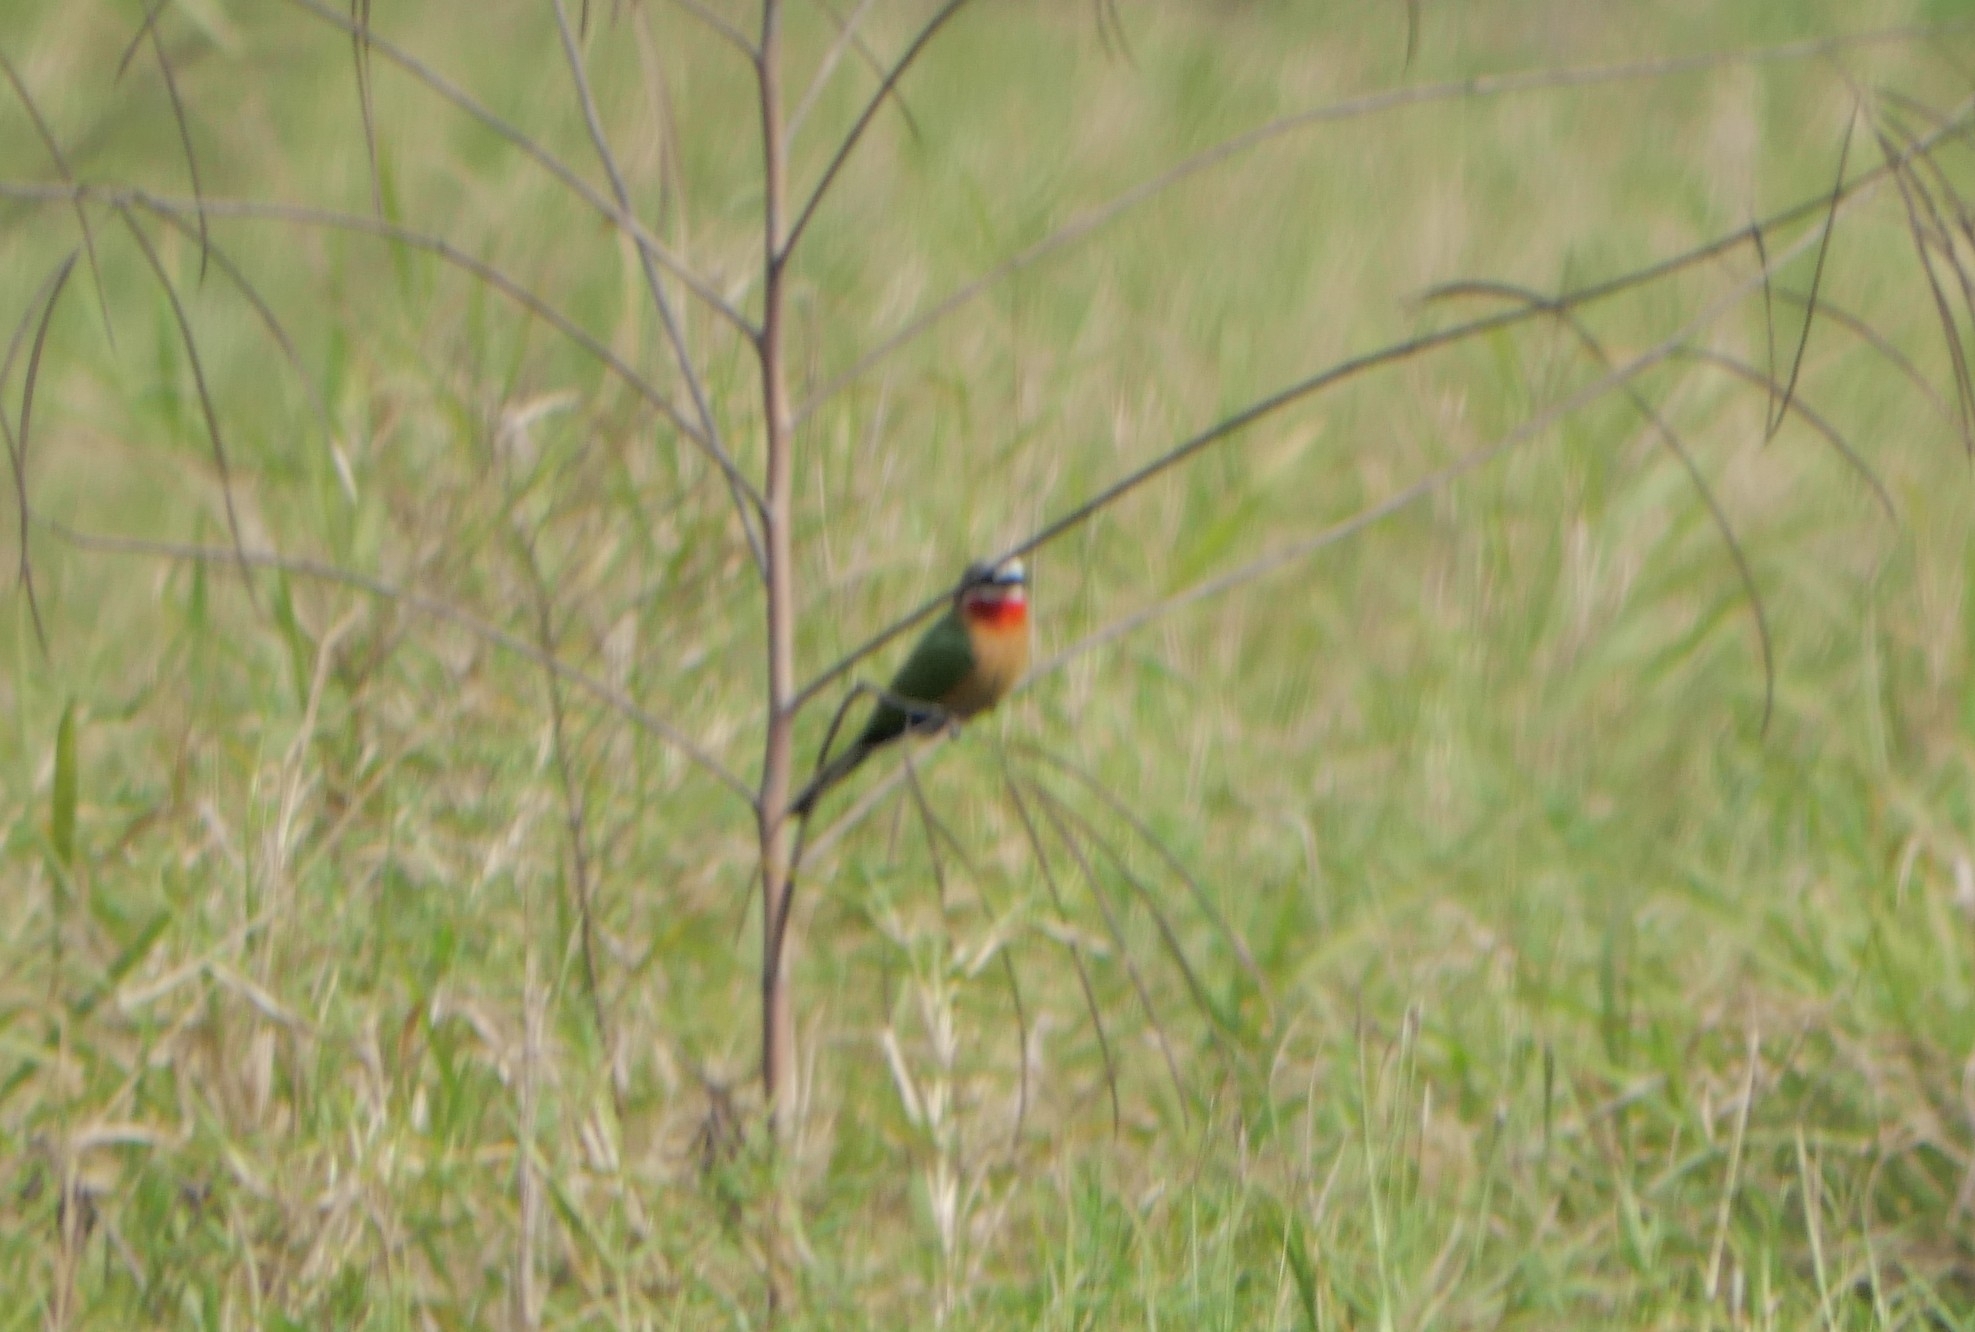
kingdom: Animalia
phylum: Chordata
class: Aves
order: Coraciiformes
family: Meropidae
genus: Merops
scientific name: Merops bullockoides
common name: White-fronted bee-eater
